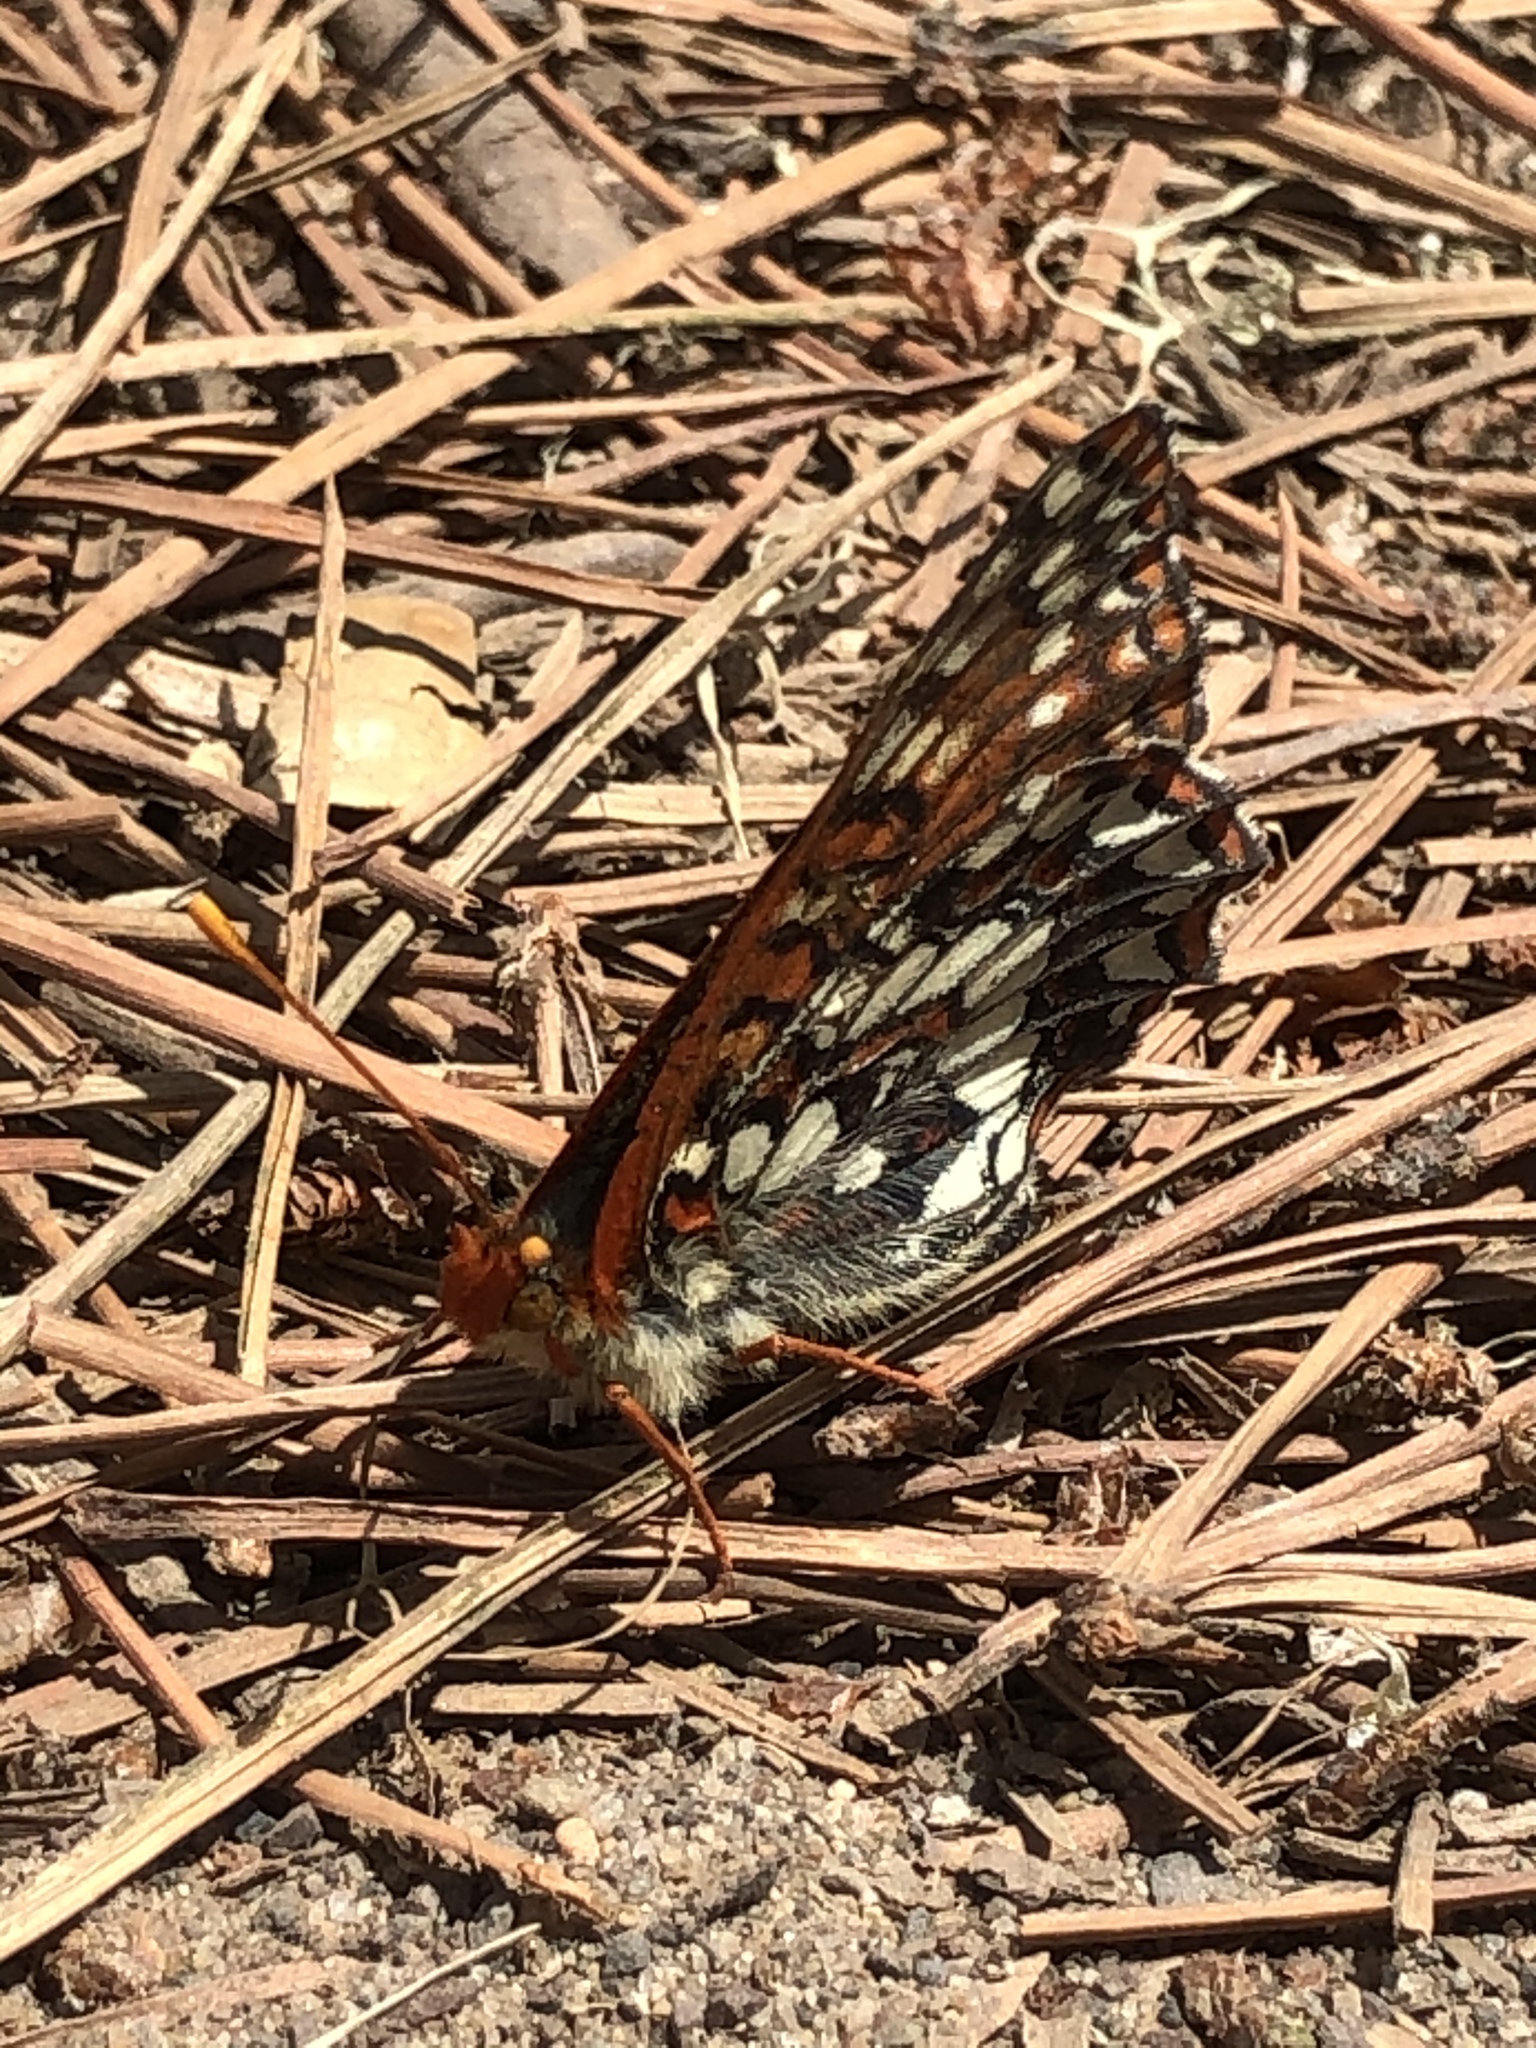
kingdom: Animalia
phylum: Arthropoda
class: Insecta
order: Lepidoptera
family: Nymphalidae
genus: Occidryas
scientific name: Occidryas chalcedona
